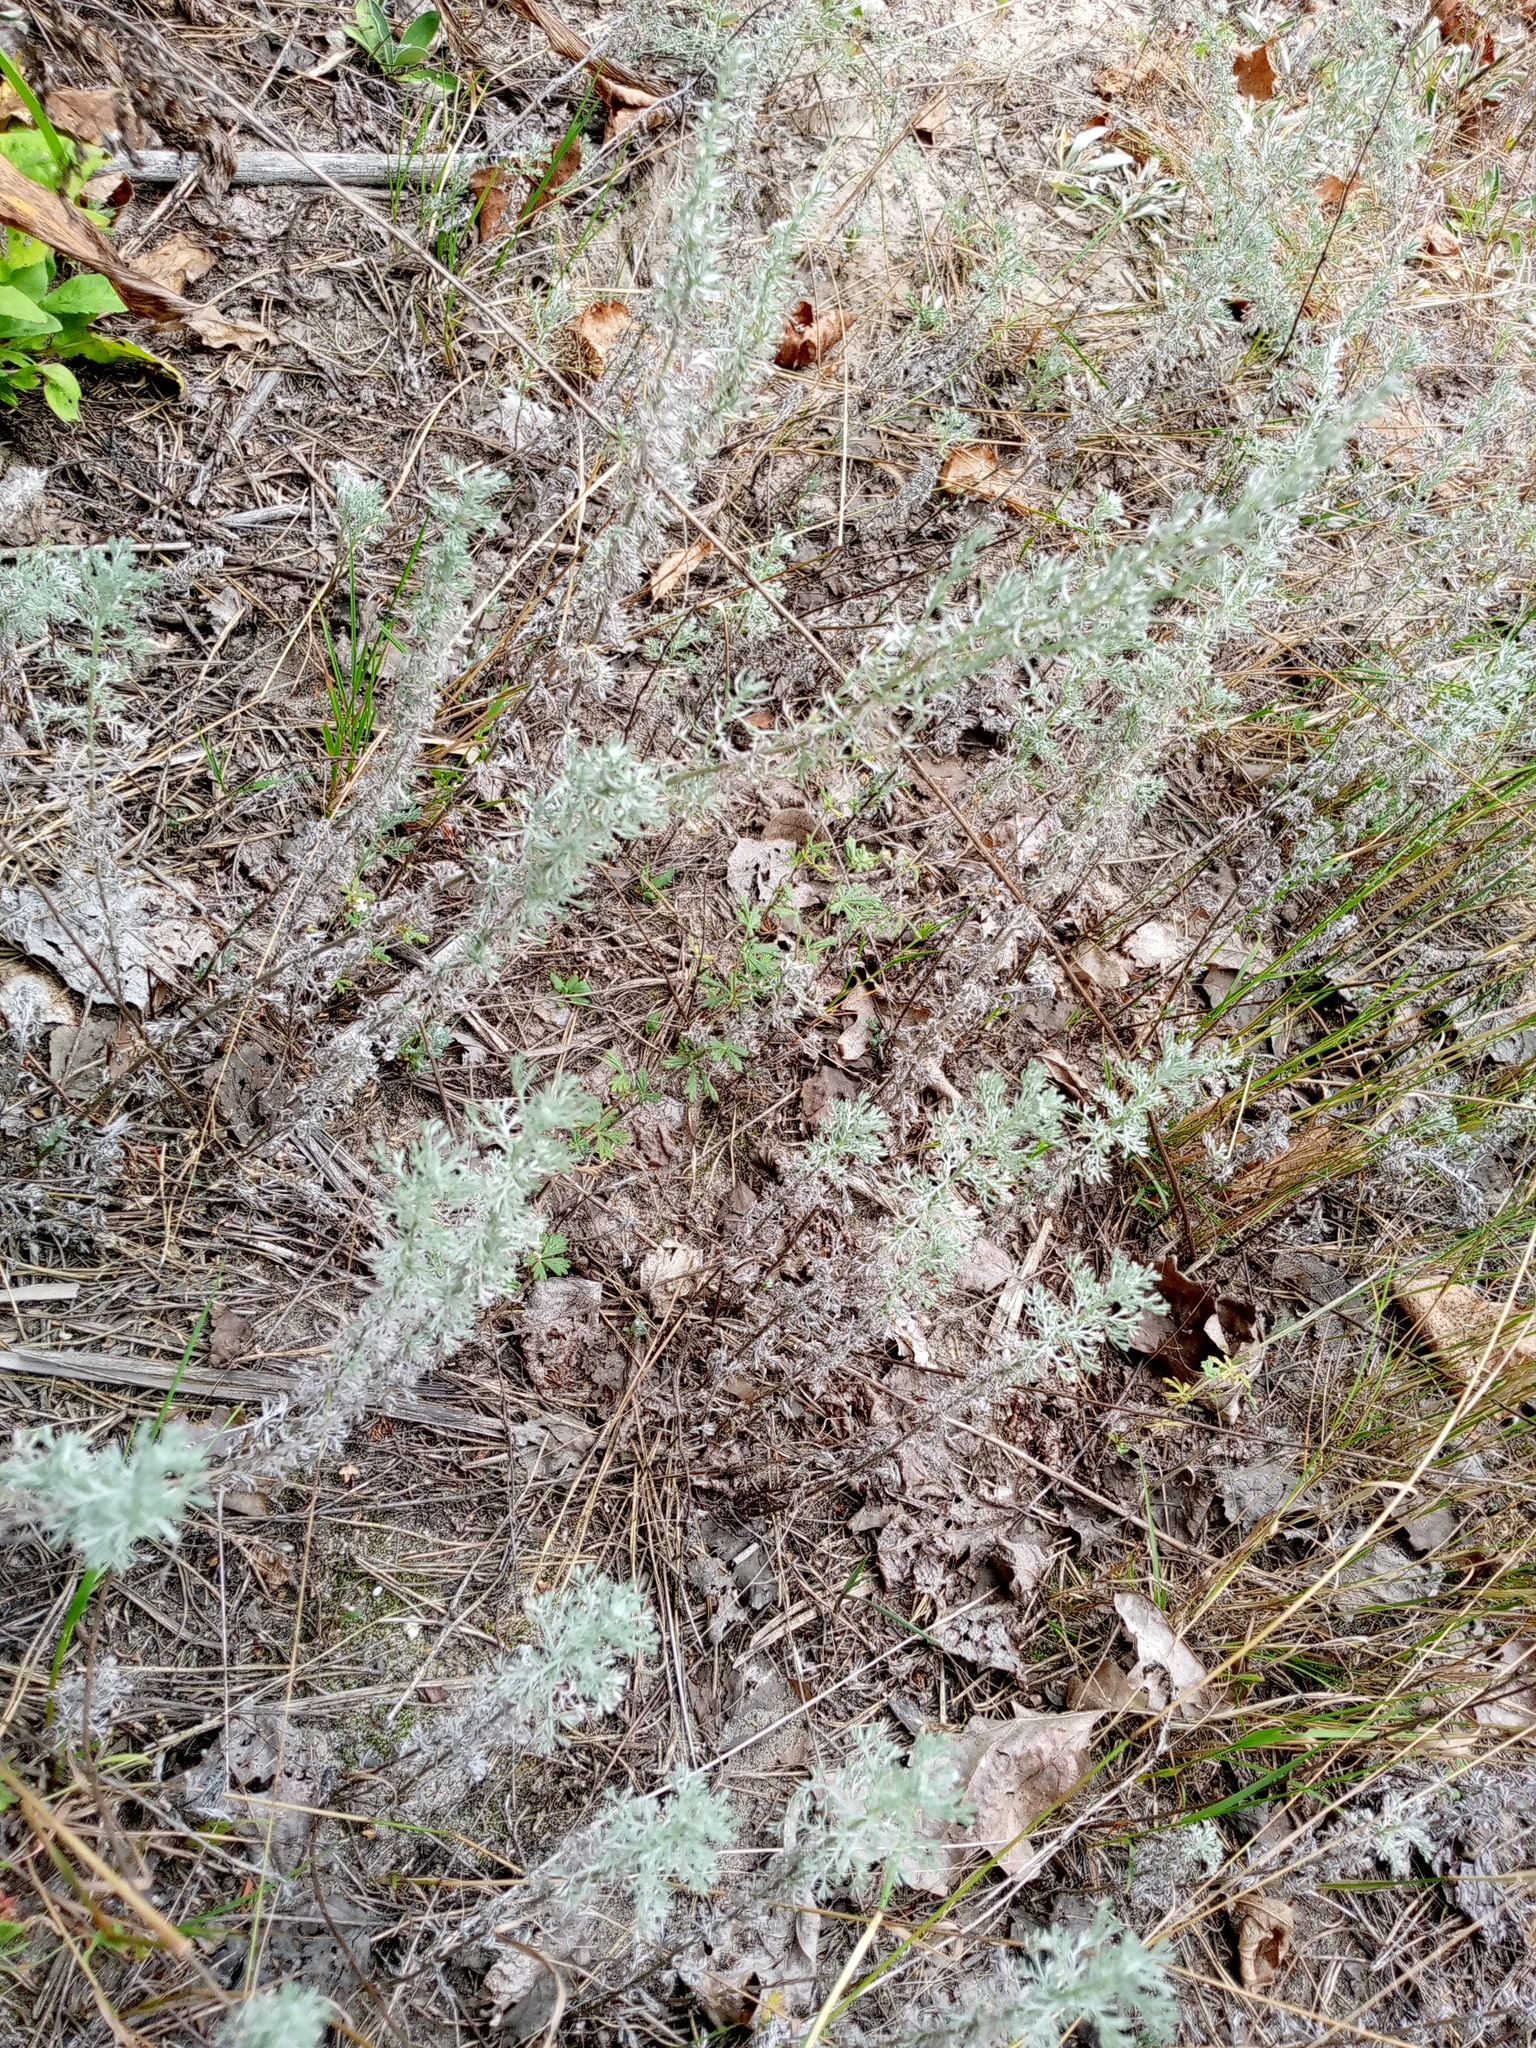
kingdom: Plantae
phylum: Tracheophyta
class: Magnoliopsida
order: Asterales
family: Asteraceae
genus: Artemisia
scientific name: Artemisia austriaca
